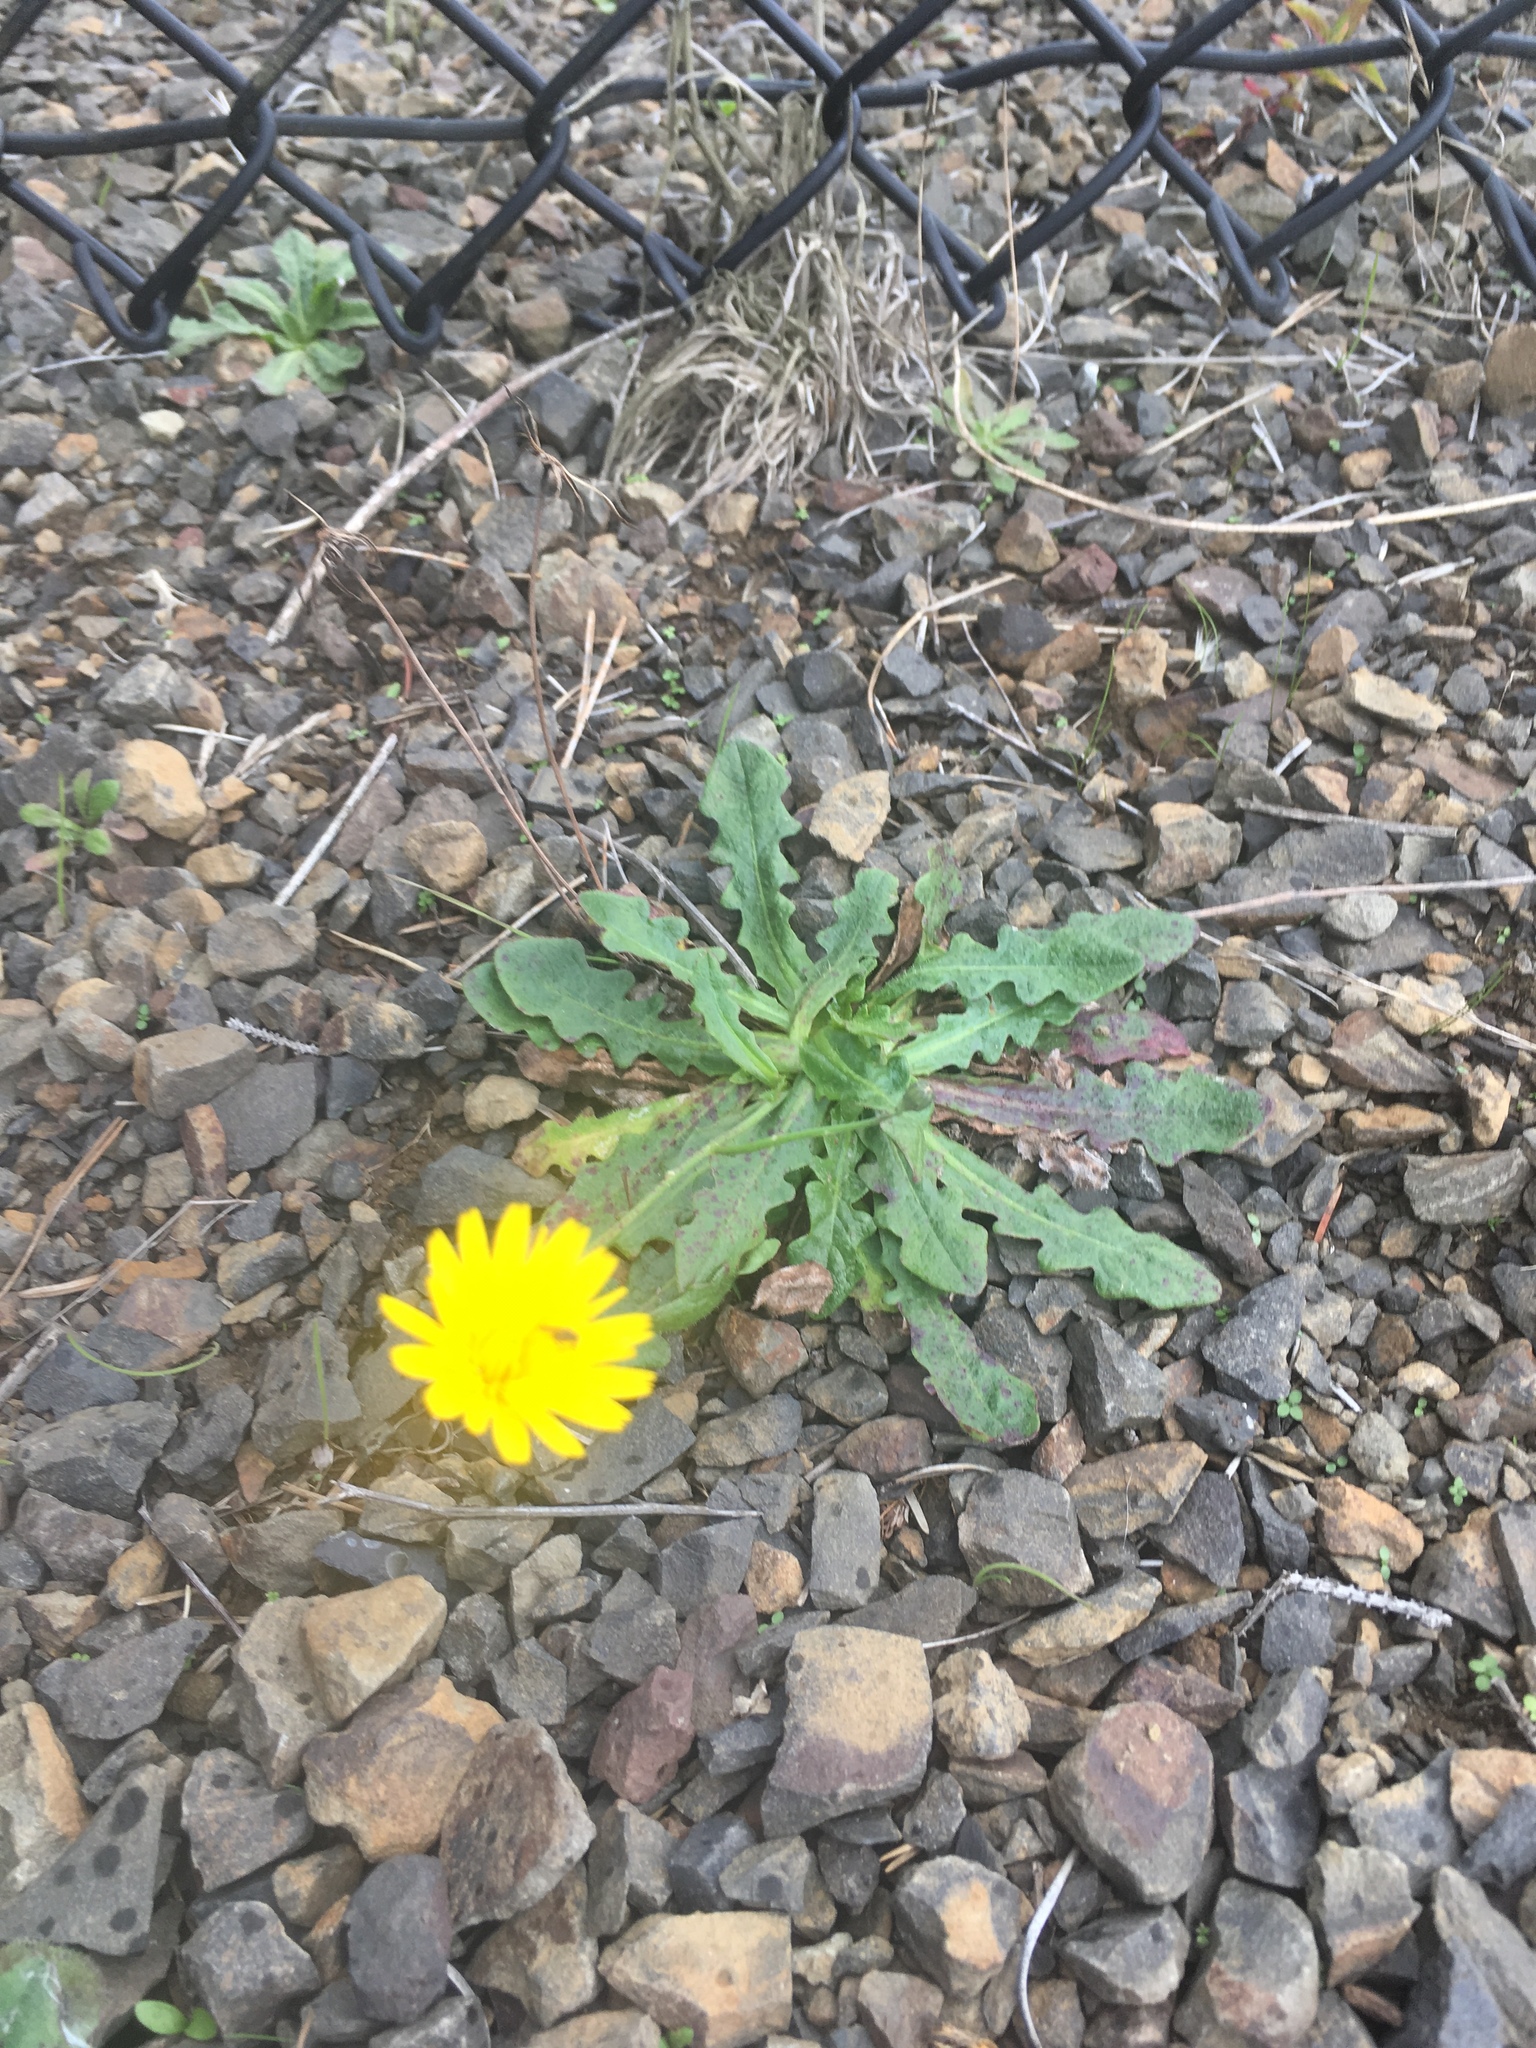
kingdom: Plantae
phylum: Tracheophyta
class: Magnoliopsida
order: Asterales
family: Asteraceae
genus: Hypochaeris
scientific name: Hypochaeris radicata
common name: Flatweed
